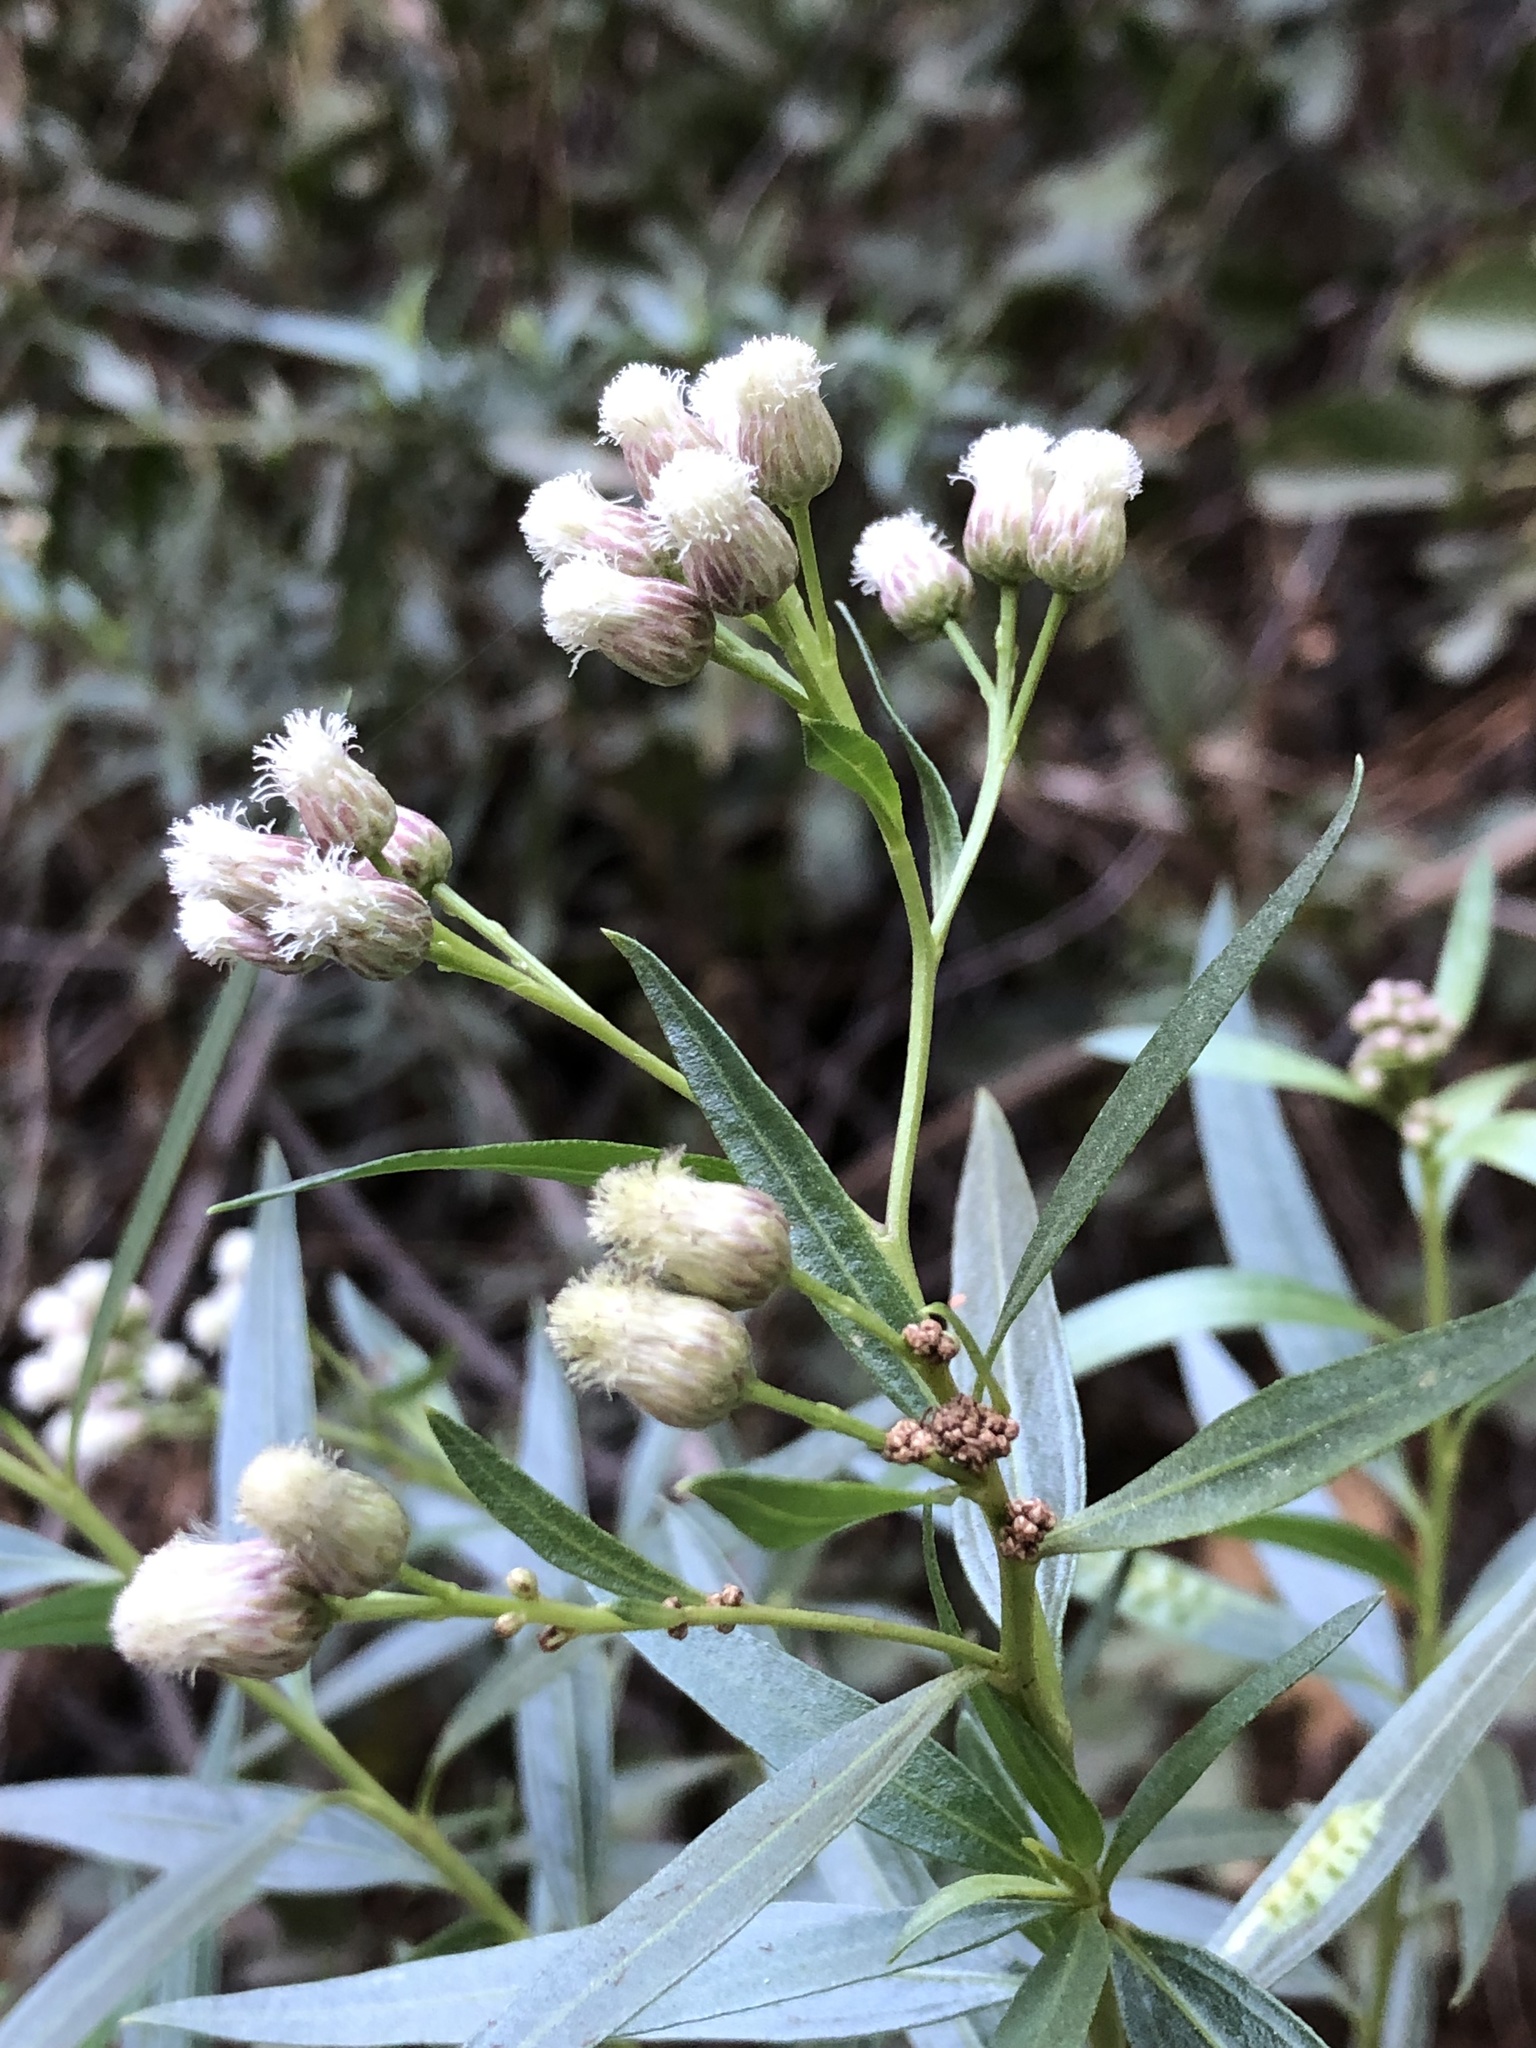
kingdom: Plantae
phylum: Tracheophyta
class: Magnoliopsida
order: Asterales
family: Asteraceae
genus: Baccharis
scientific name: Baccharis salicifolia
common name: Sticky baccharis
